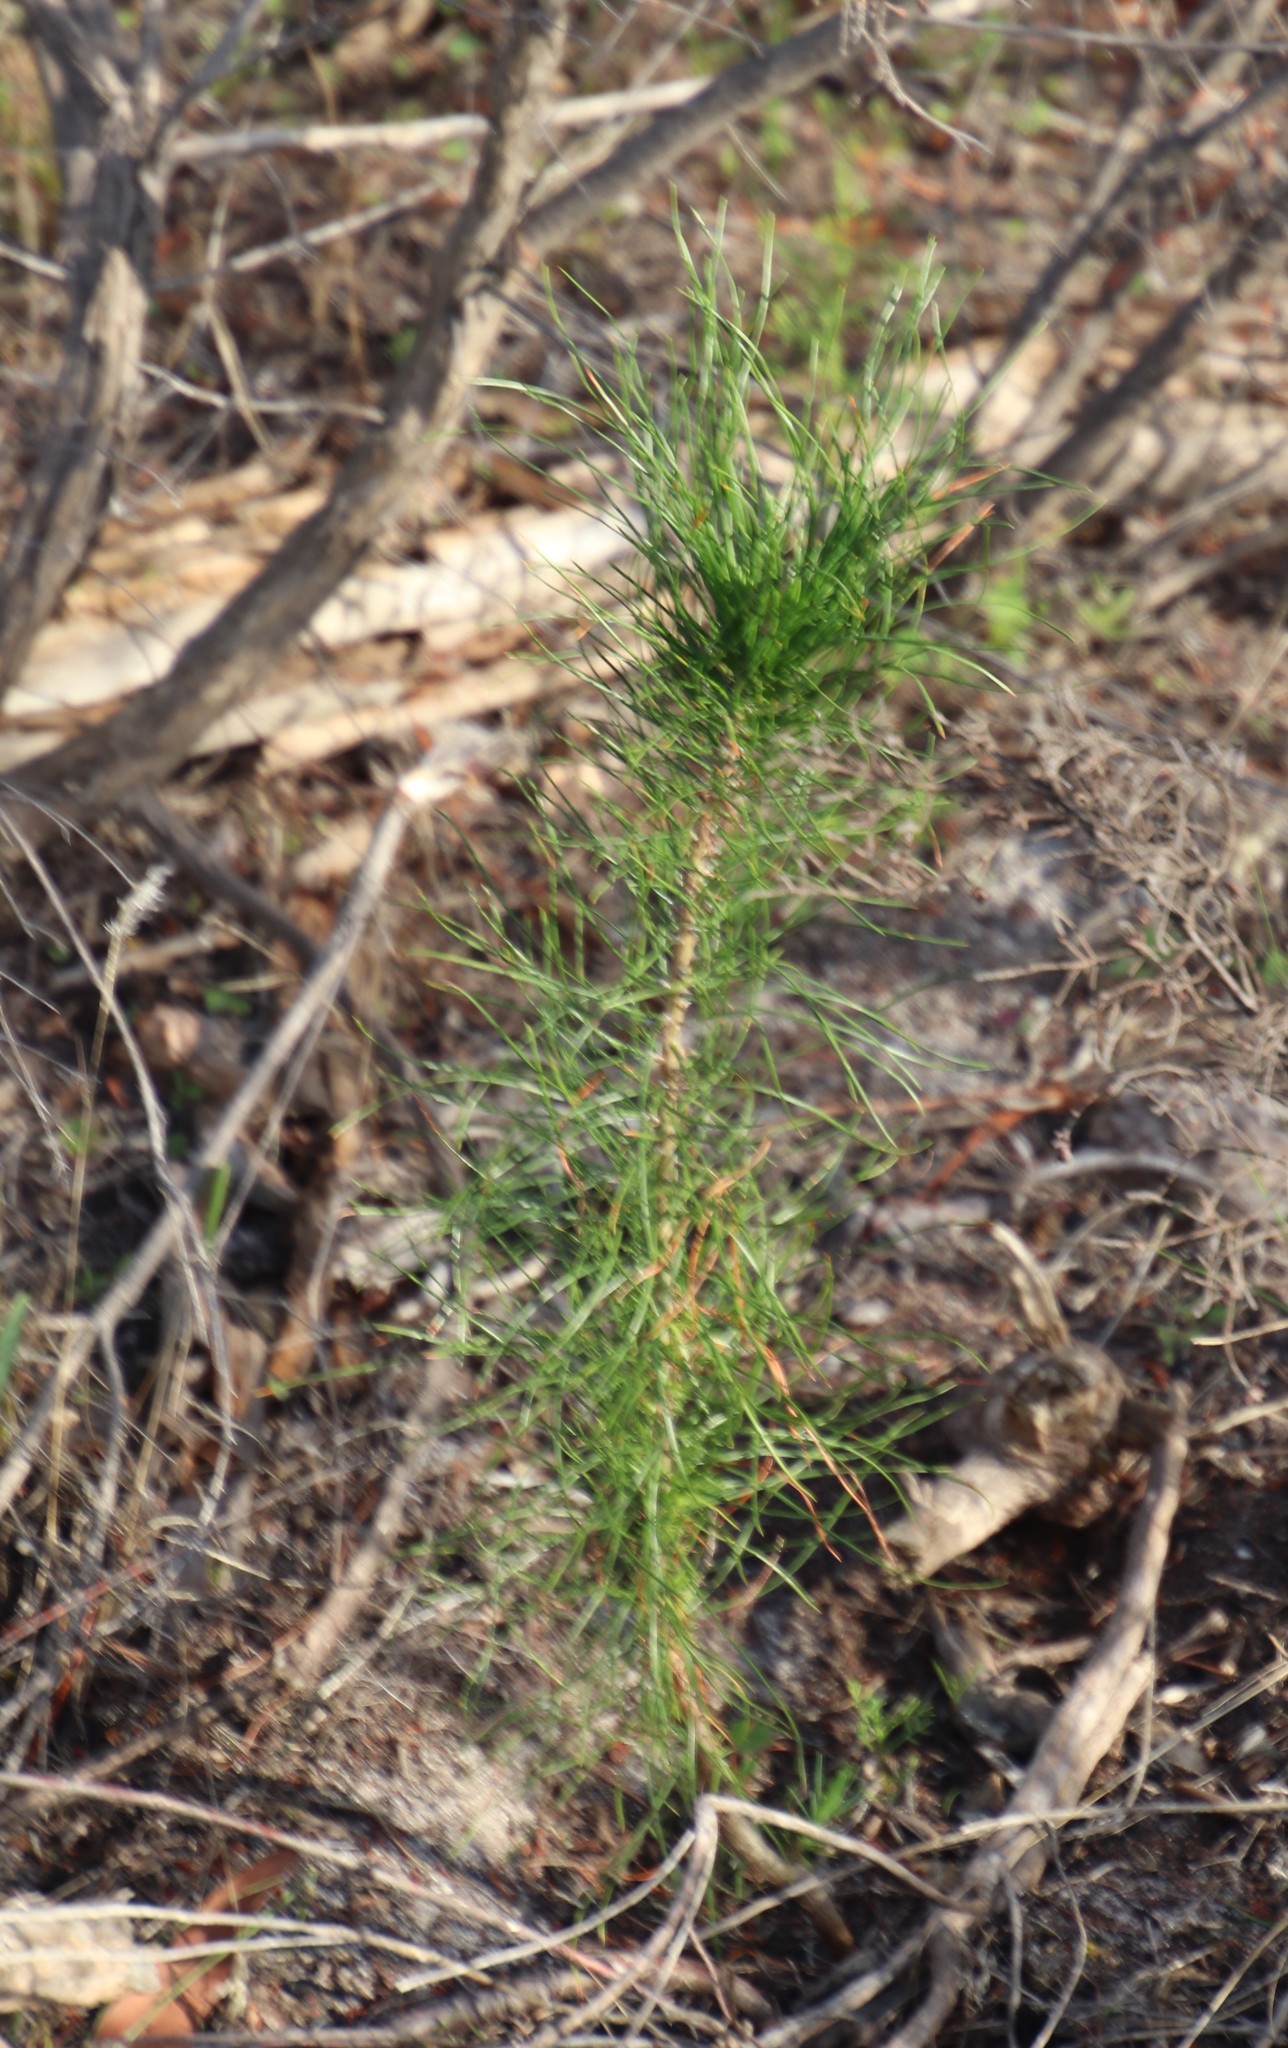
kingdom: Plantae
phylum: Tracheophyta
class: Pinopsida
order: Pinales
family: Pinaceae
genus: Pinus
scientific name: Pinus radiata
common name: Monterey pine
